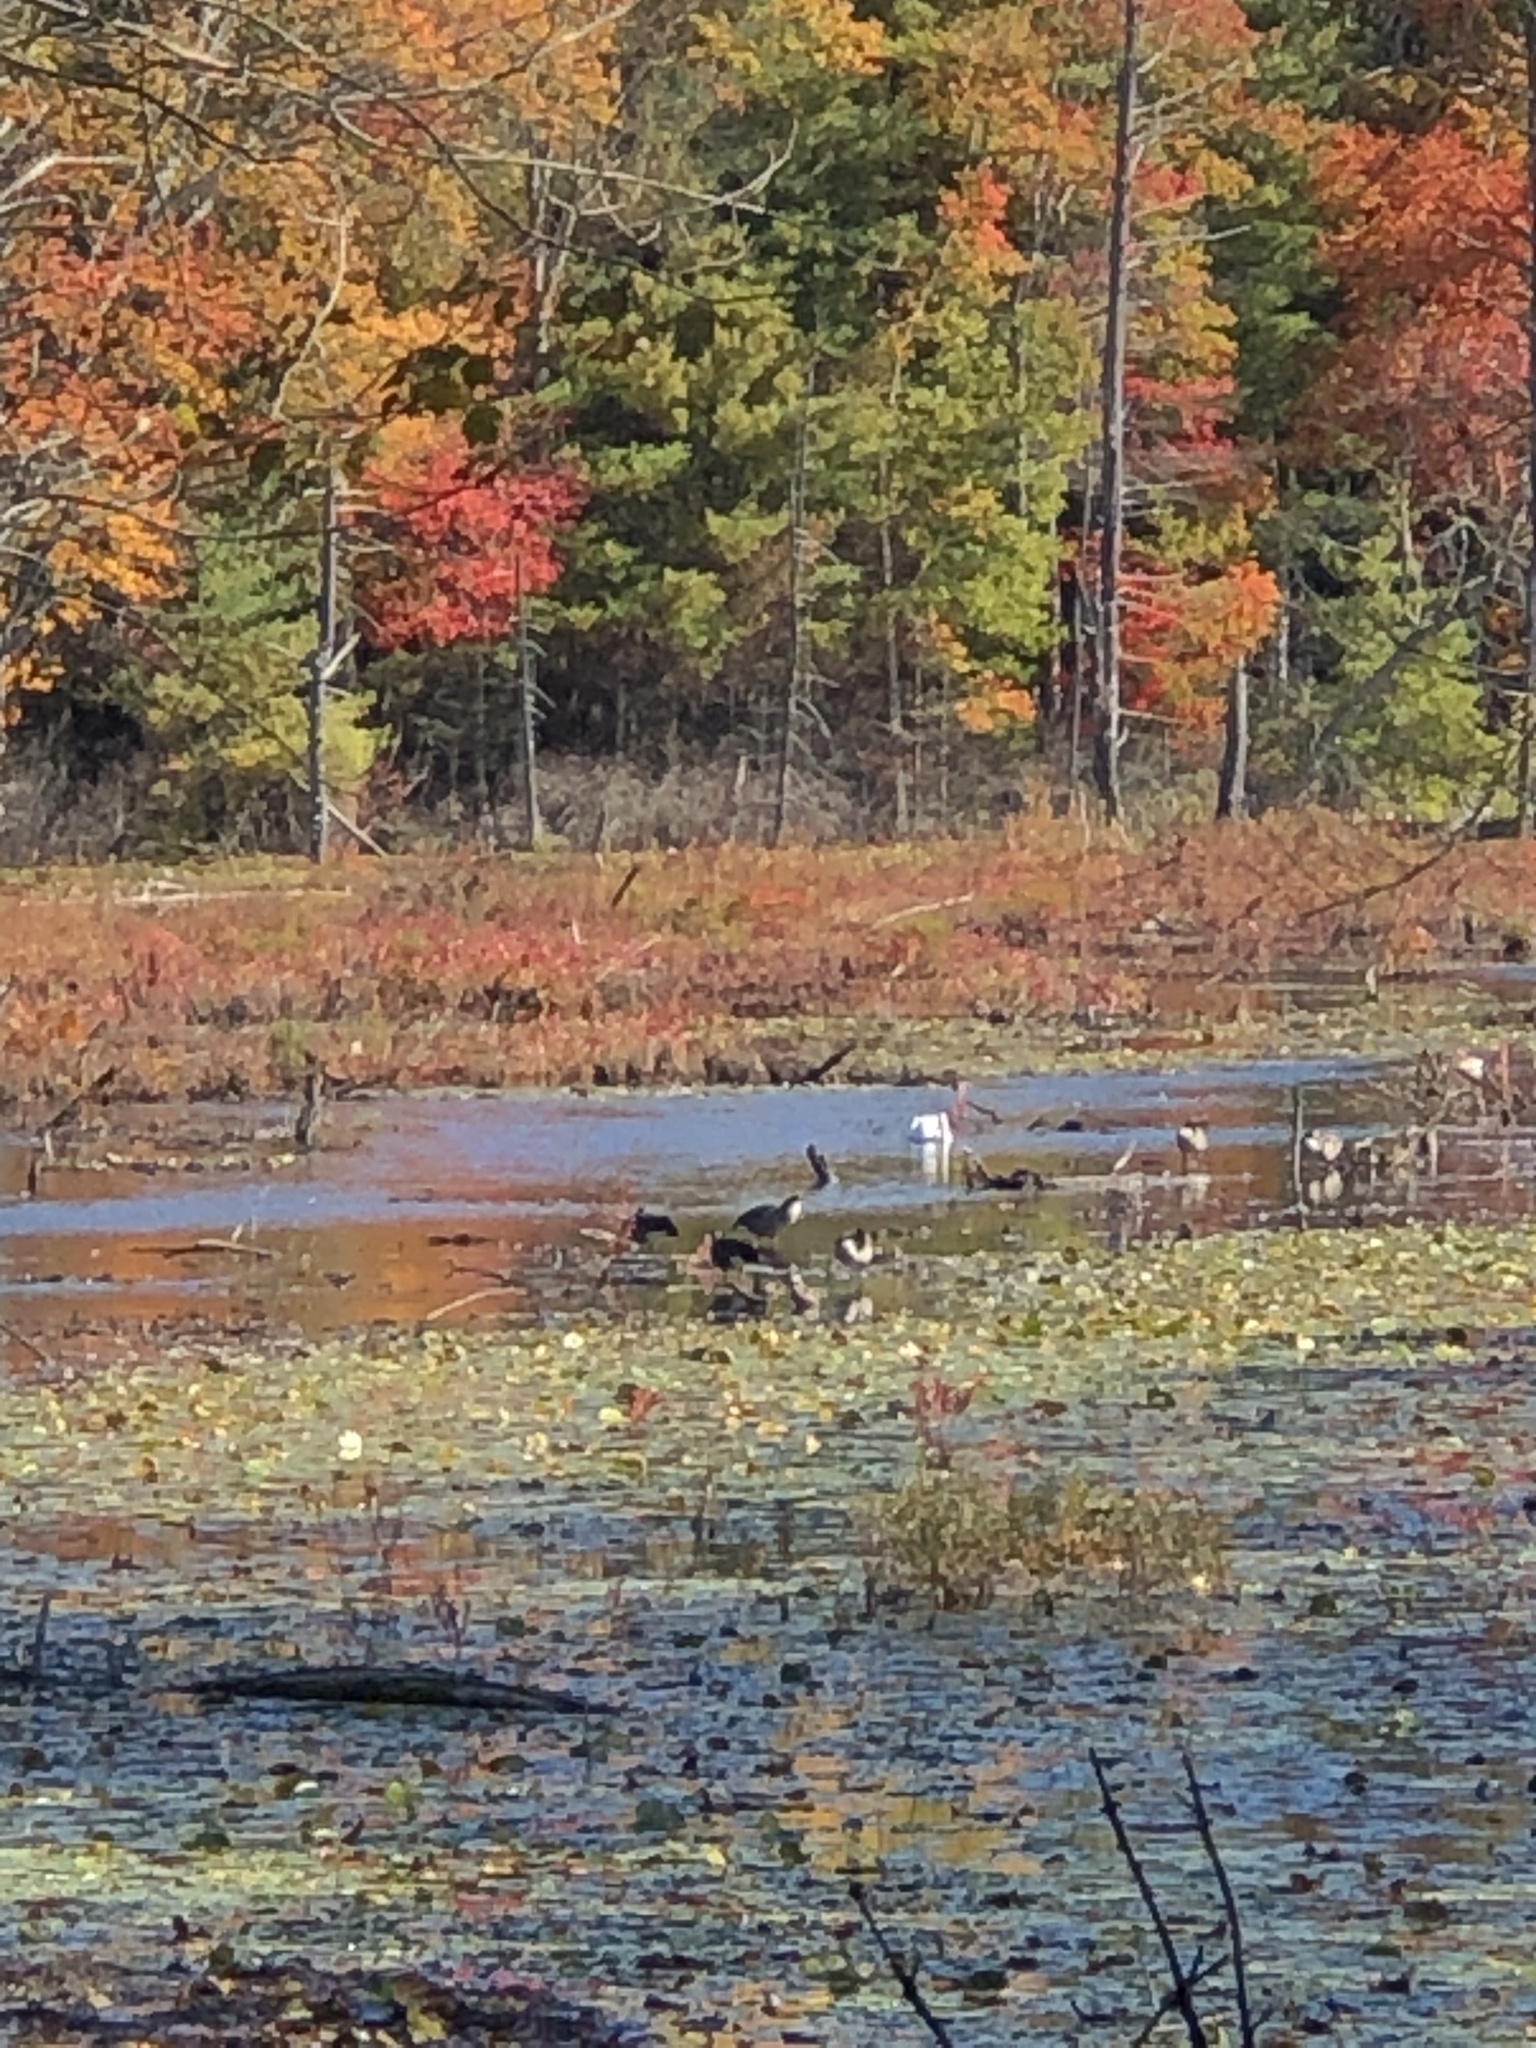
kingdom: Animalia
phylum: Chordata
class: Aves
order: Anseriformes
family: Anatidae
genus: Cygnus
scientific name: Cygnus olor
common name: Mute swan
